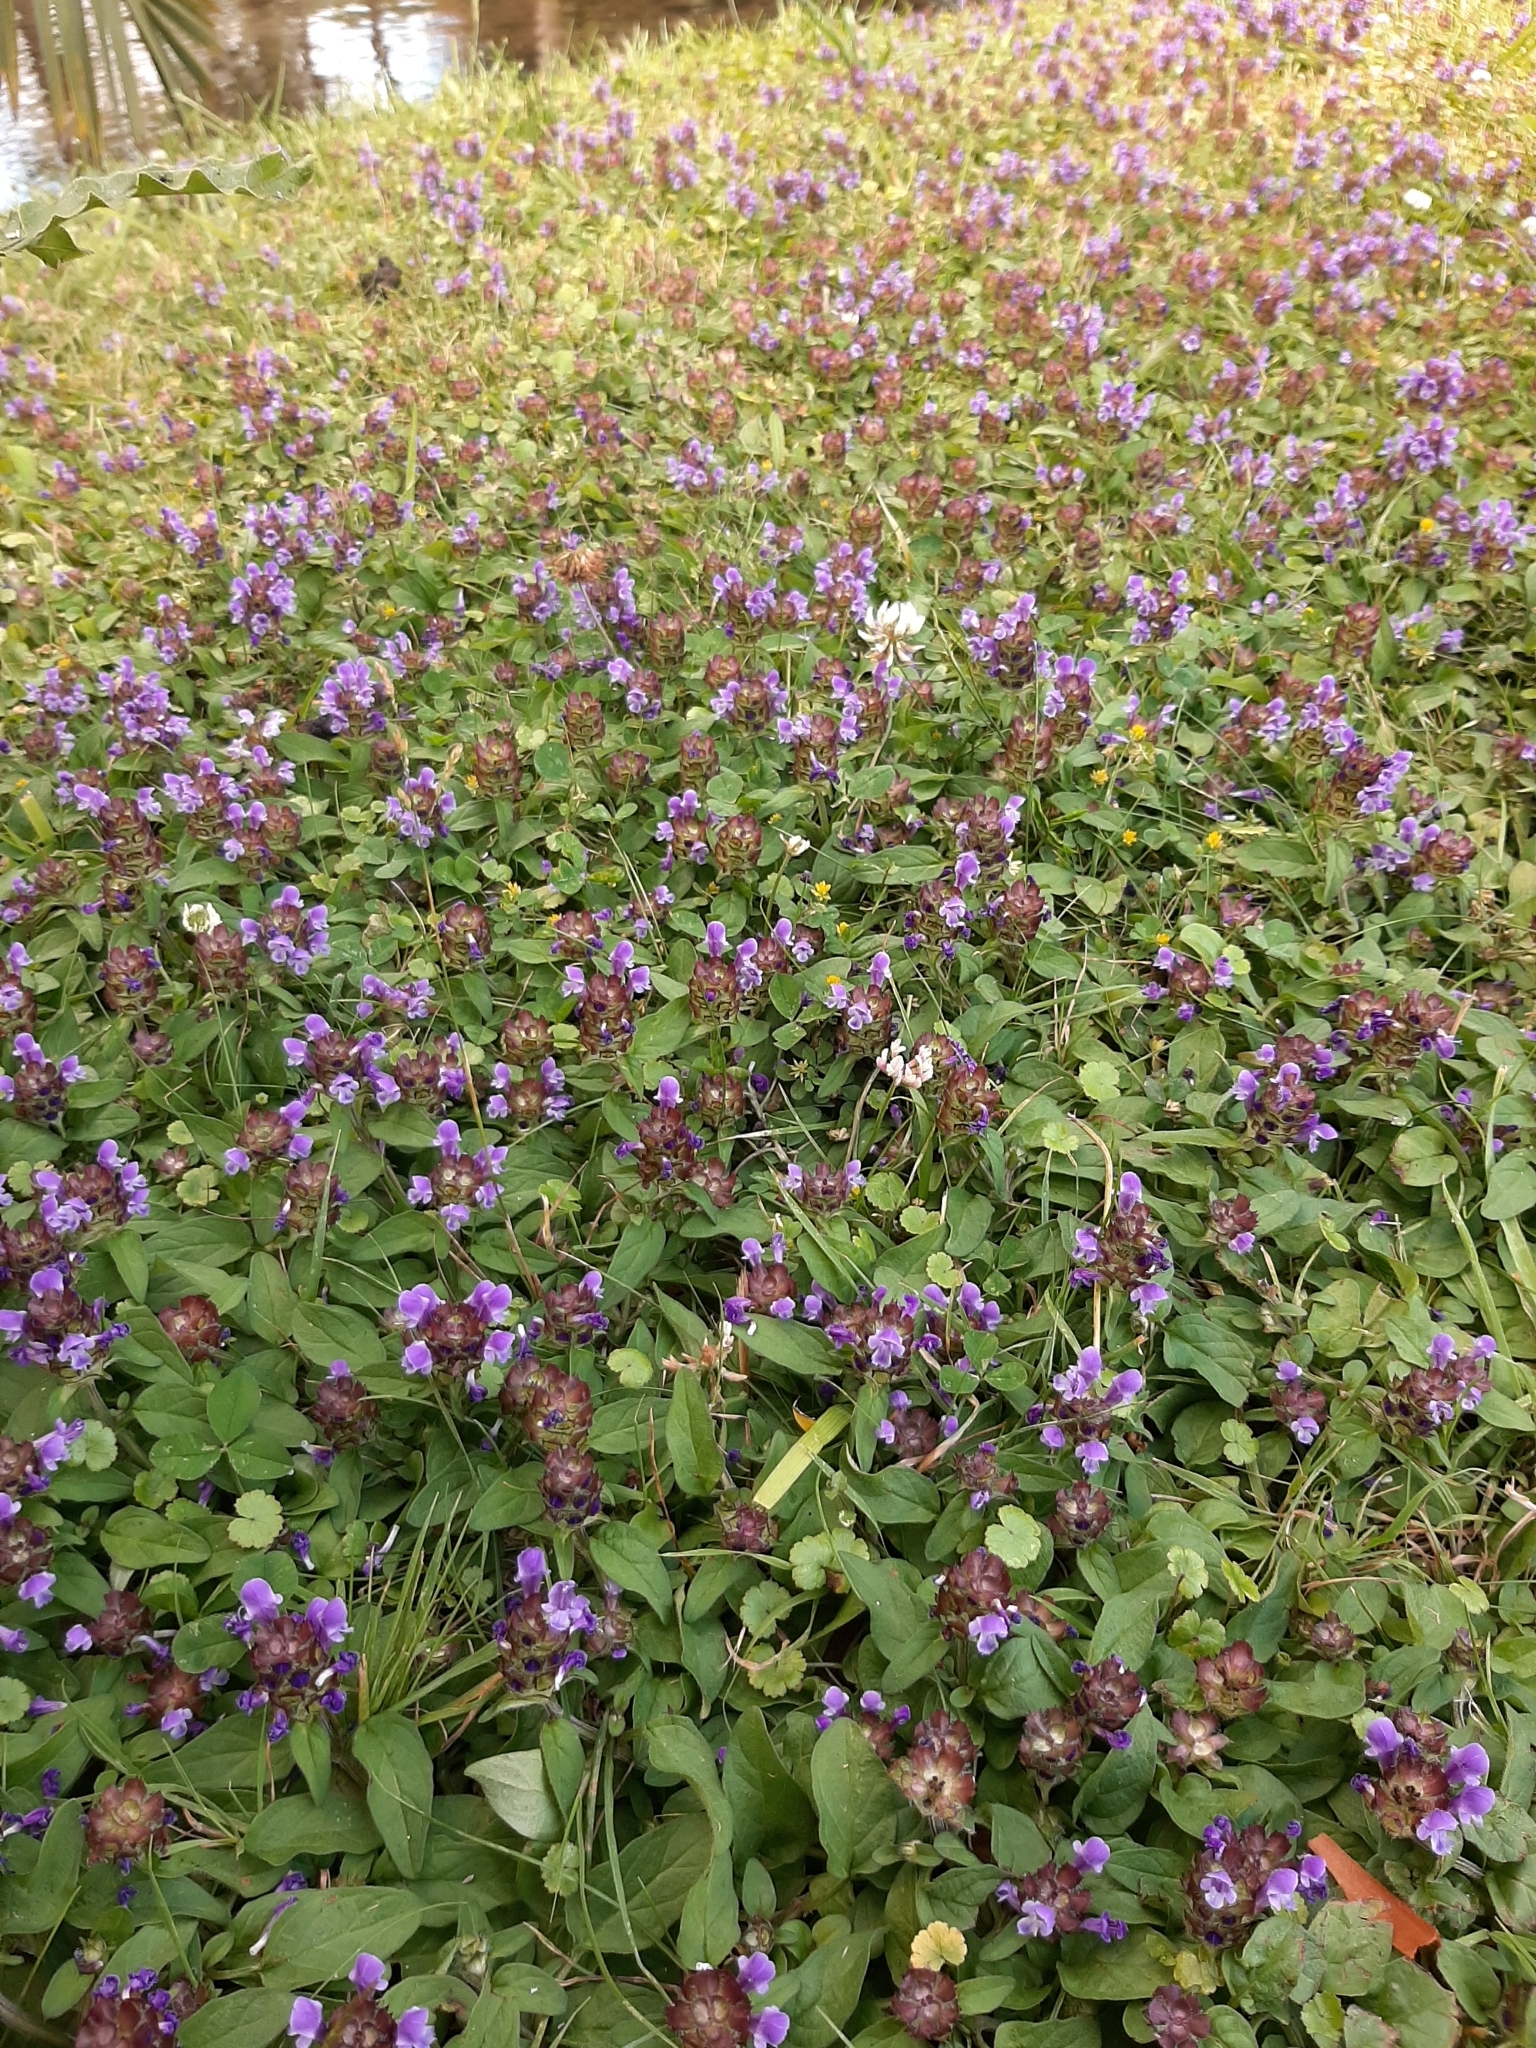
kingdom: Plantae
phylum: Tracheophyta
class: Magnoliopsida
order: Lamiales
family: Lamiaceae
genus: Prunella
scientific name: Prunella vulgaris
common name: Heal-all
